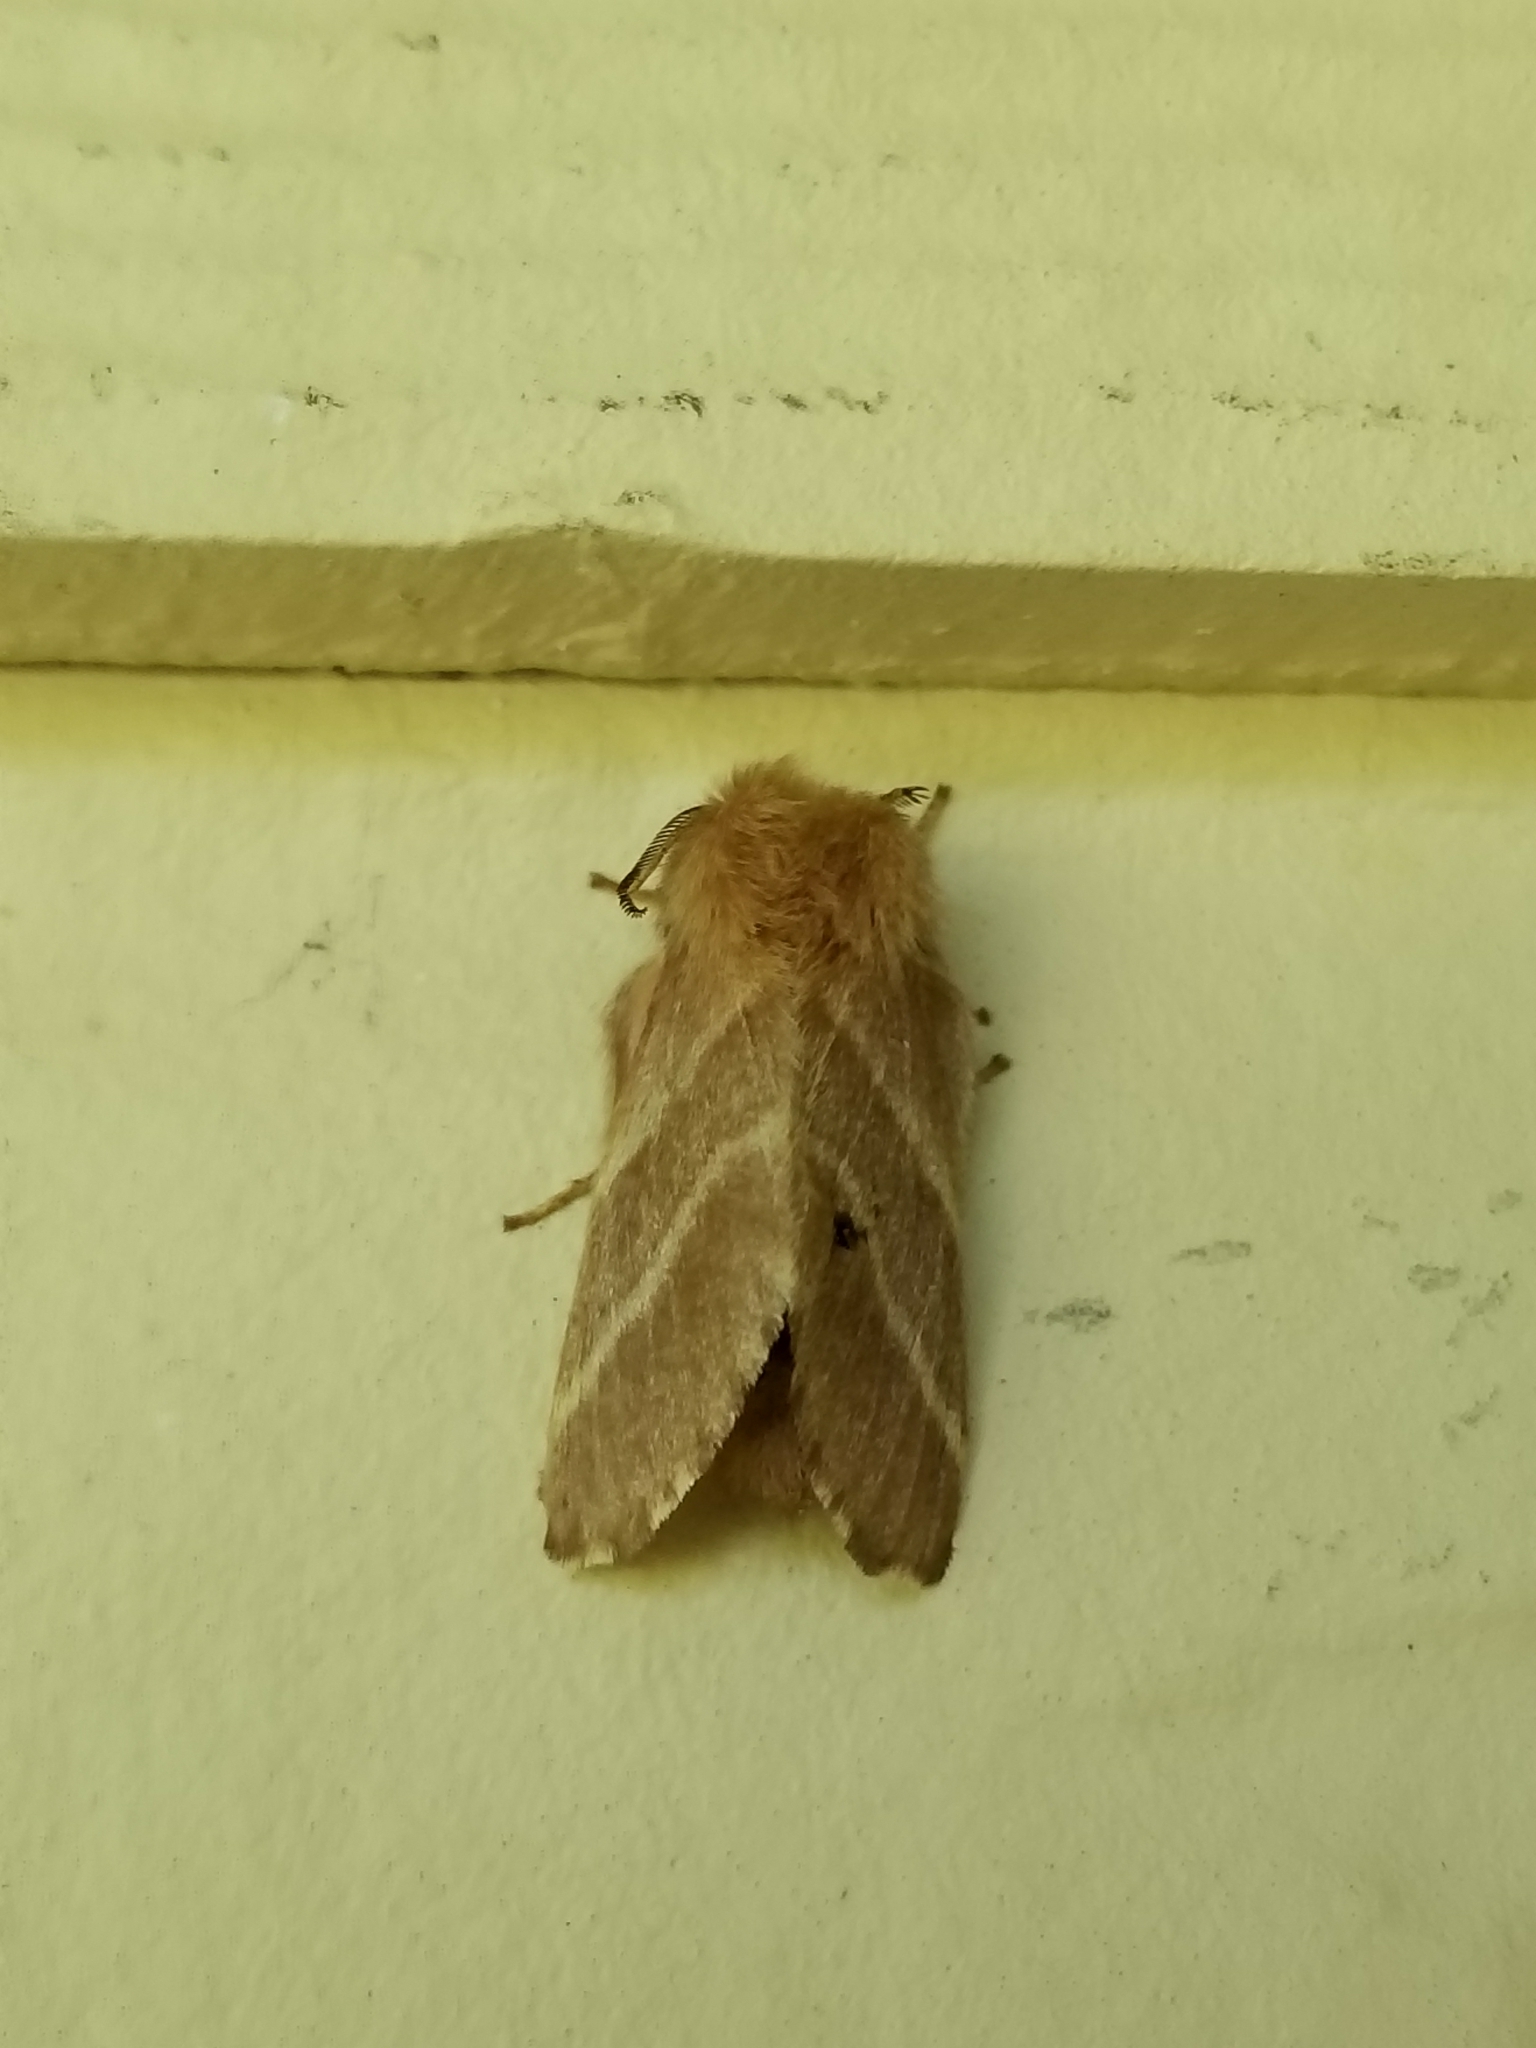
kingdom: Animalia
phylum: Arthropoda
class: Insecta
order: Lepidoptera
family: Lasiocampidae
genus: Malacosoma
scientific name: Malacosoma americana
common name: Eastern tent caterpillar moth
